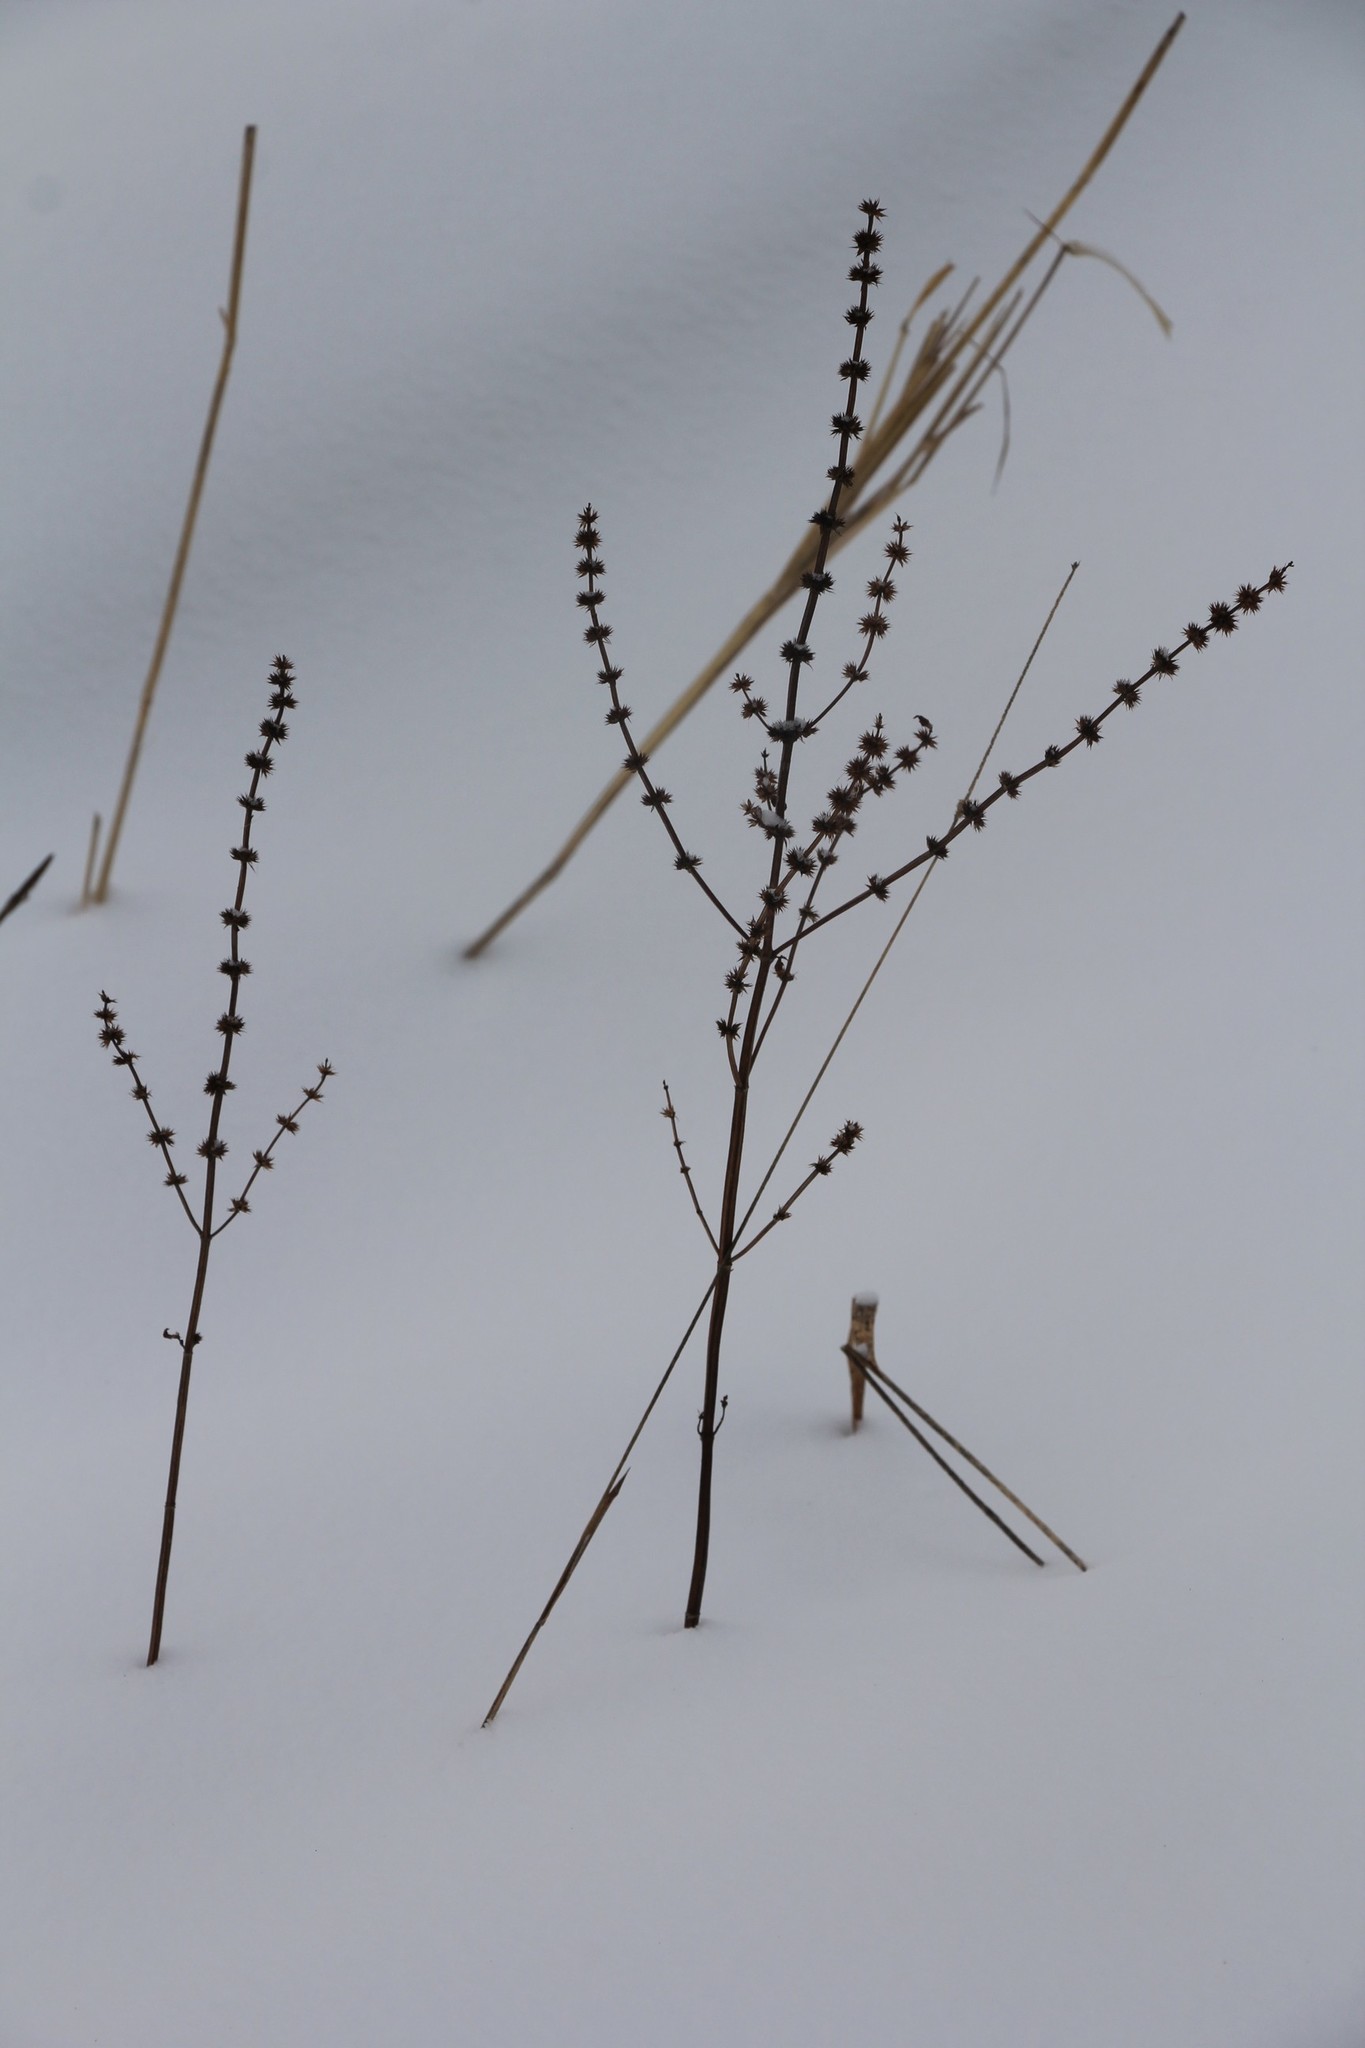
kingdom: Plantae
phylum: Tracheophyta
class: Magnoliopsida
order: Lamiales
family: Lamiaceae
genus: Leonurus
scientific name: Leonurus quinquelobatus
